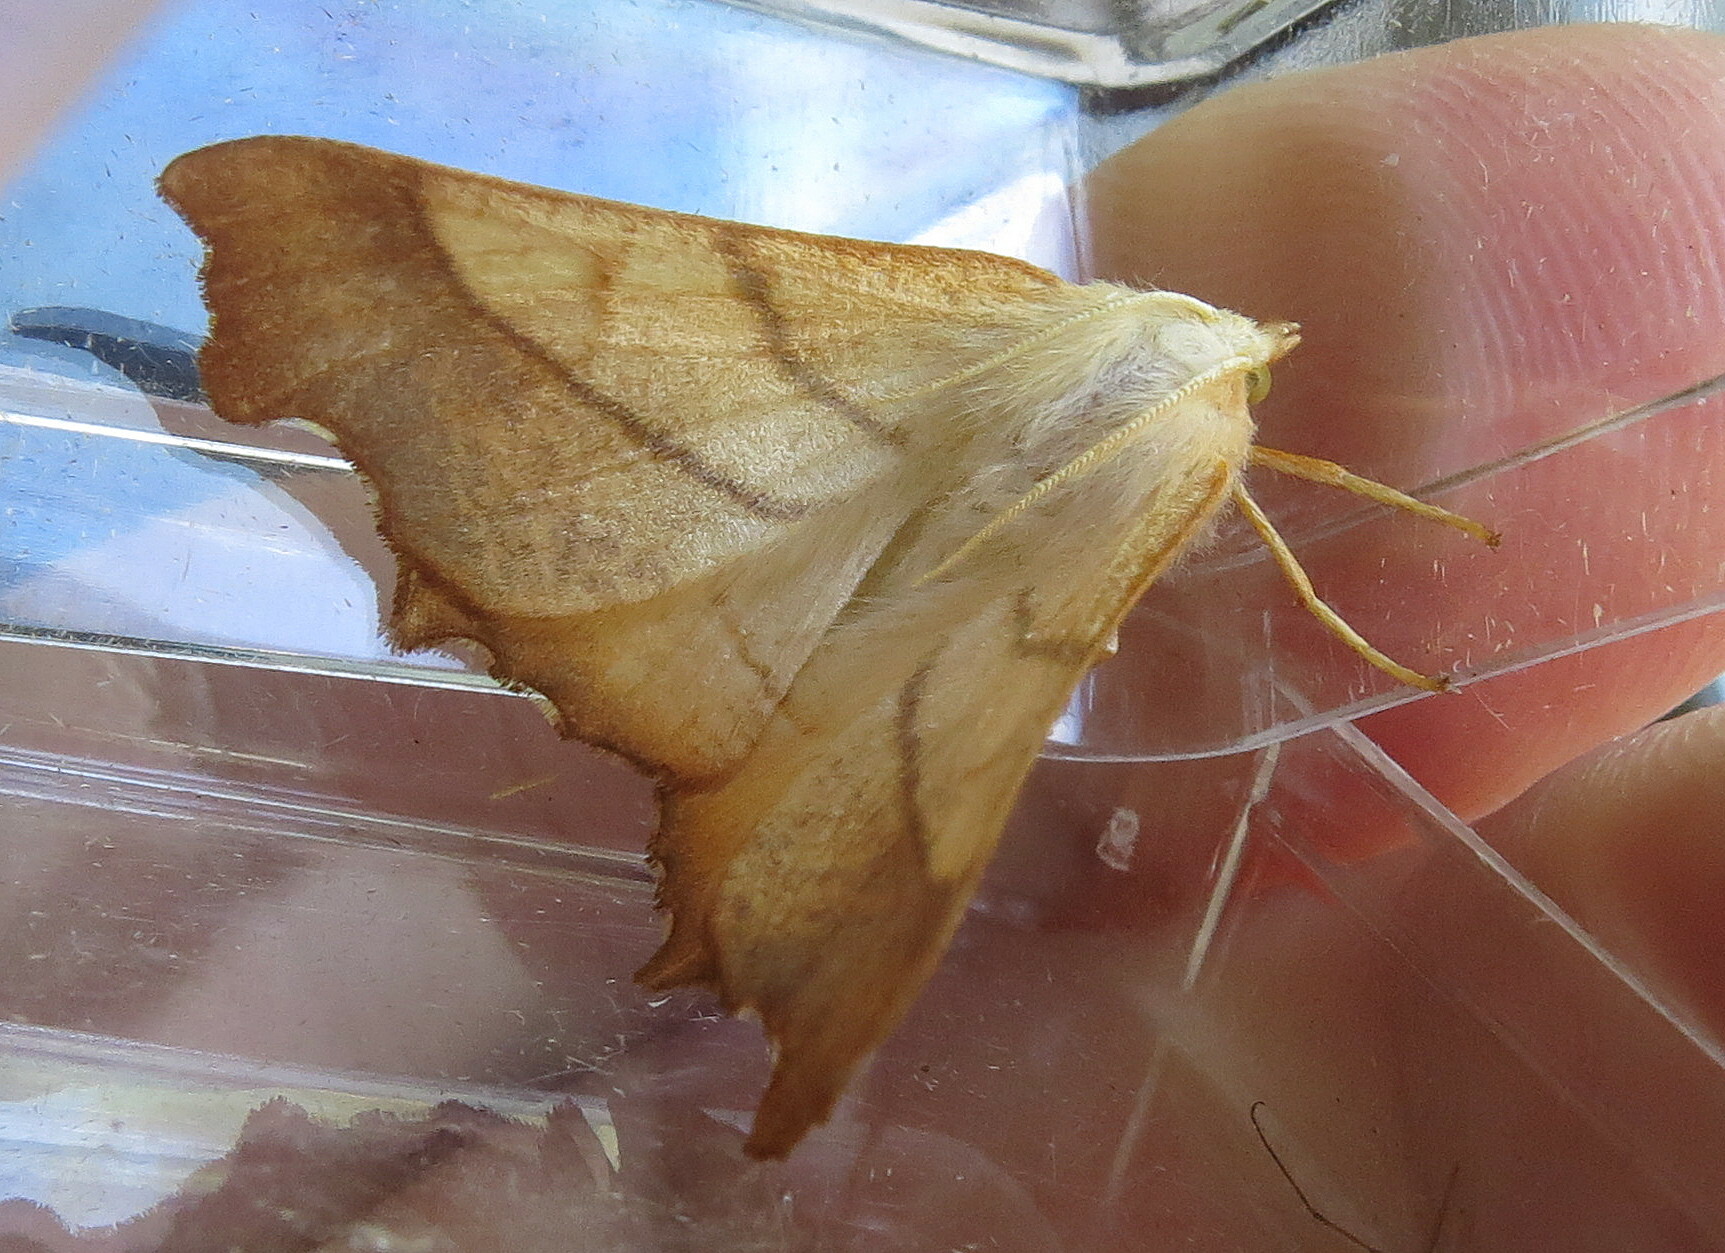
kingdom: Animalia
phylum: Arthropoda
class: Insecta
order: Lepidoptera
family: Geometridae
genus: Ennomos
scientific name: Ennomos fuscantaria
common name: Dusky thorn
